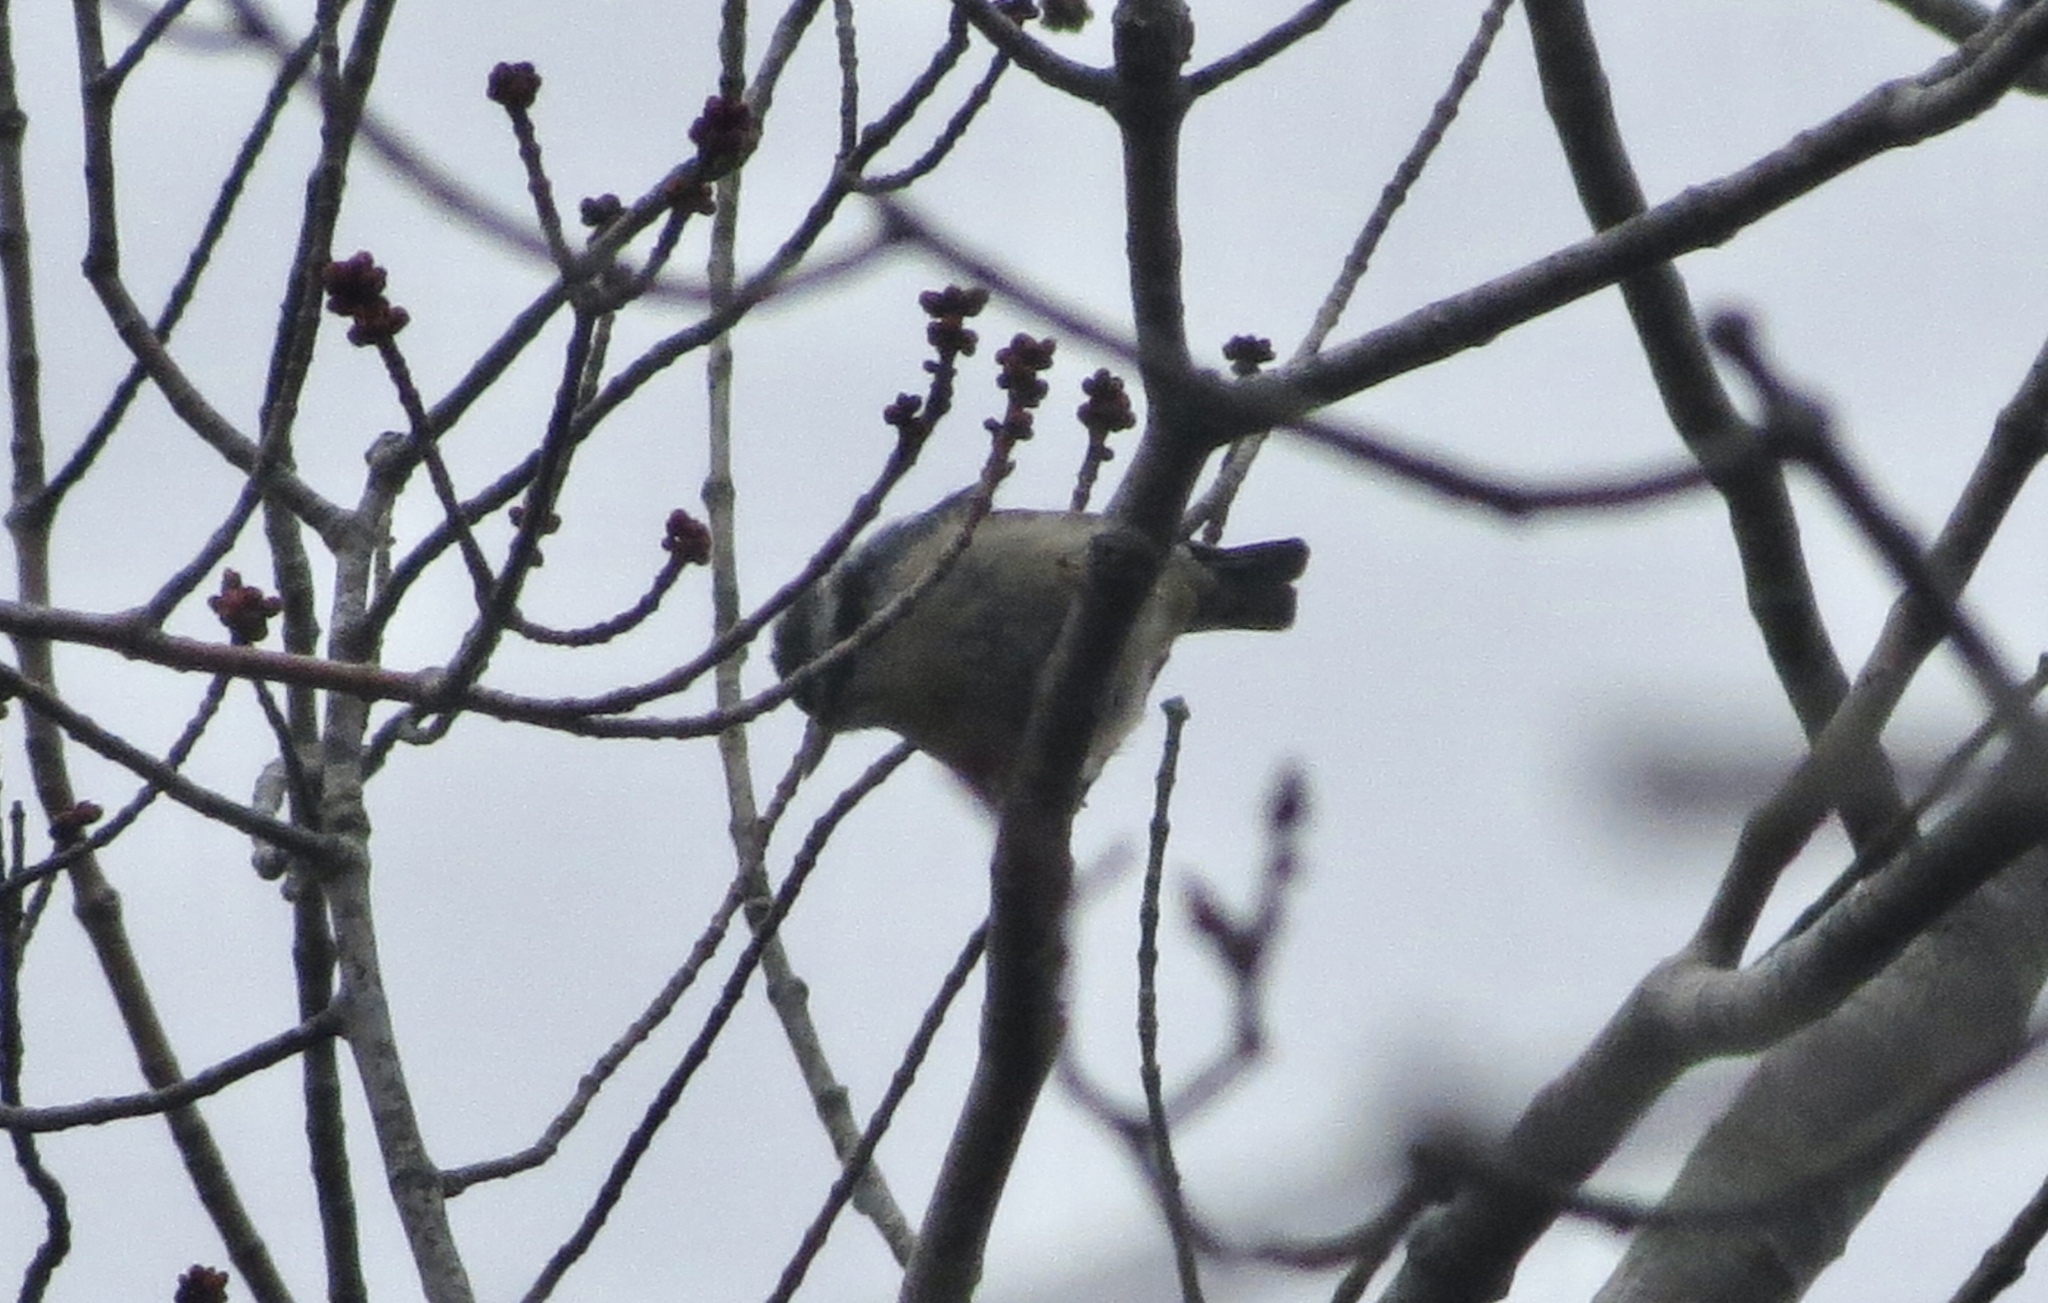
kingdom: Animalia
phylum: Chordata
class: Aves
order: Passeriformes
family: Sittidae
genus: Sitta
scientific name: Sitta canadensis
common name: Red-breasted nuthatch
